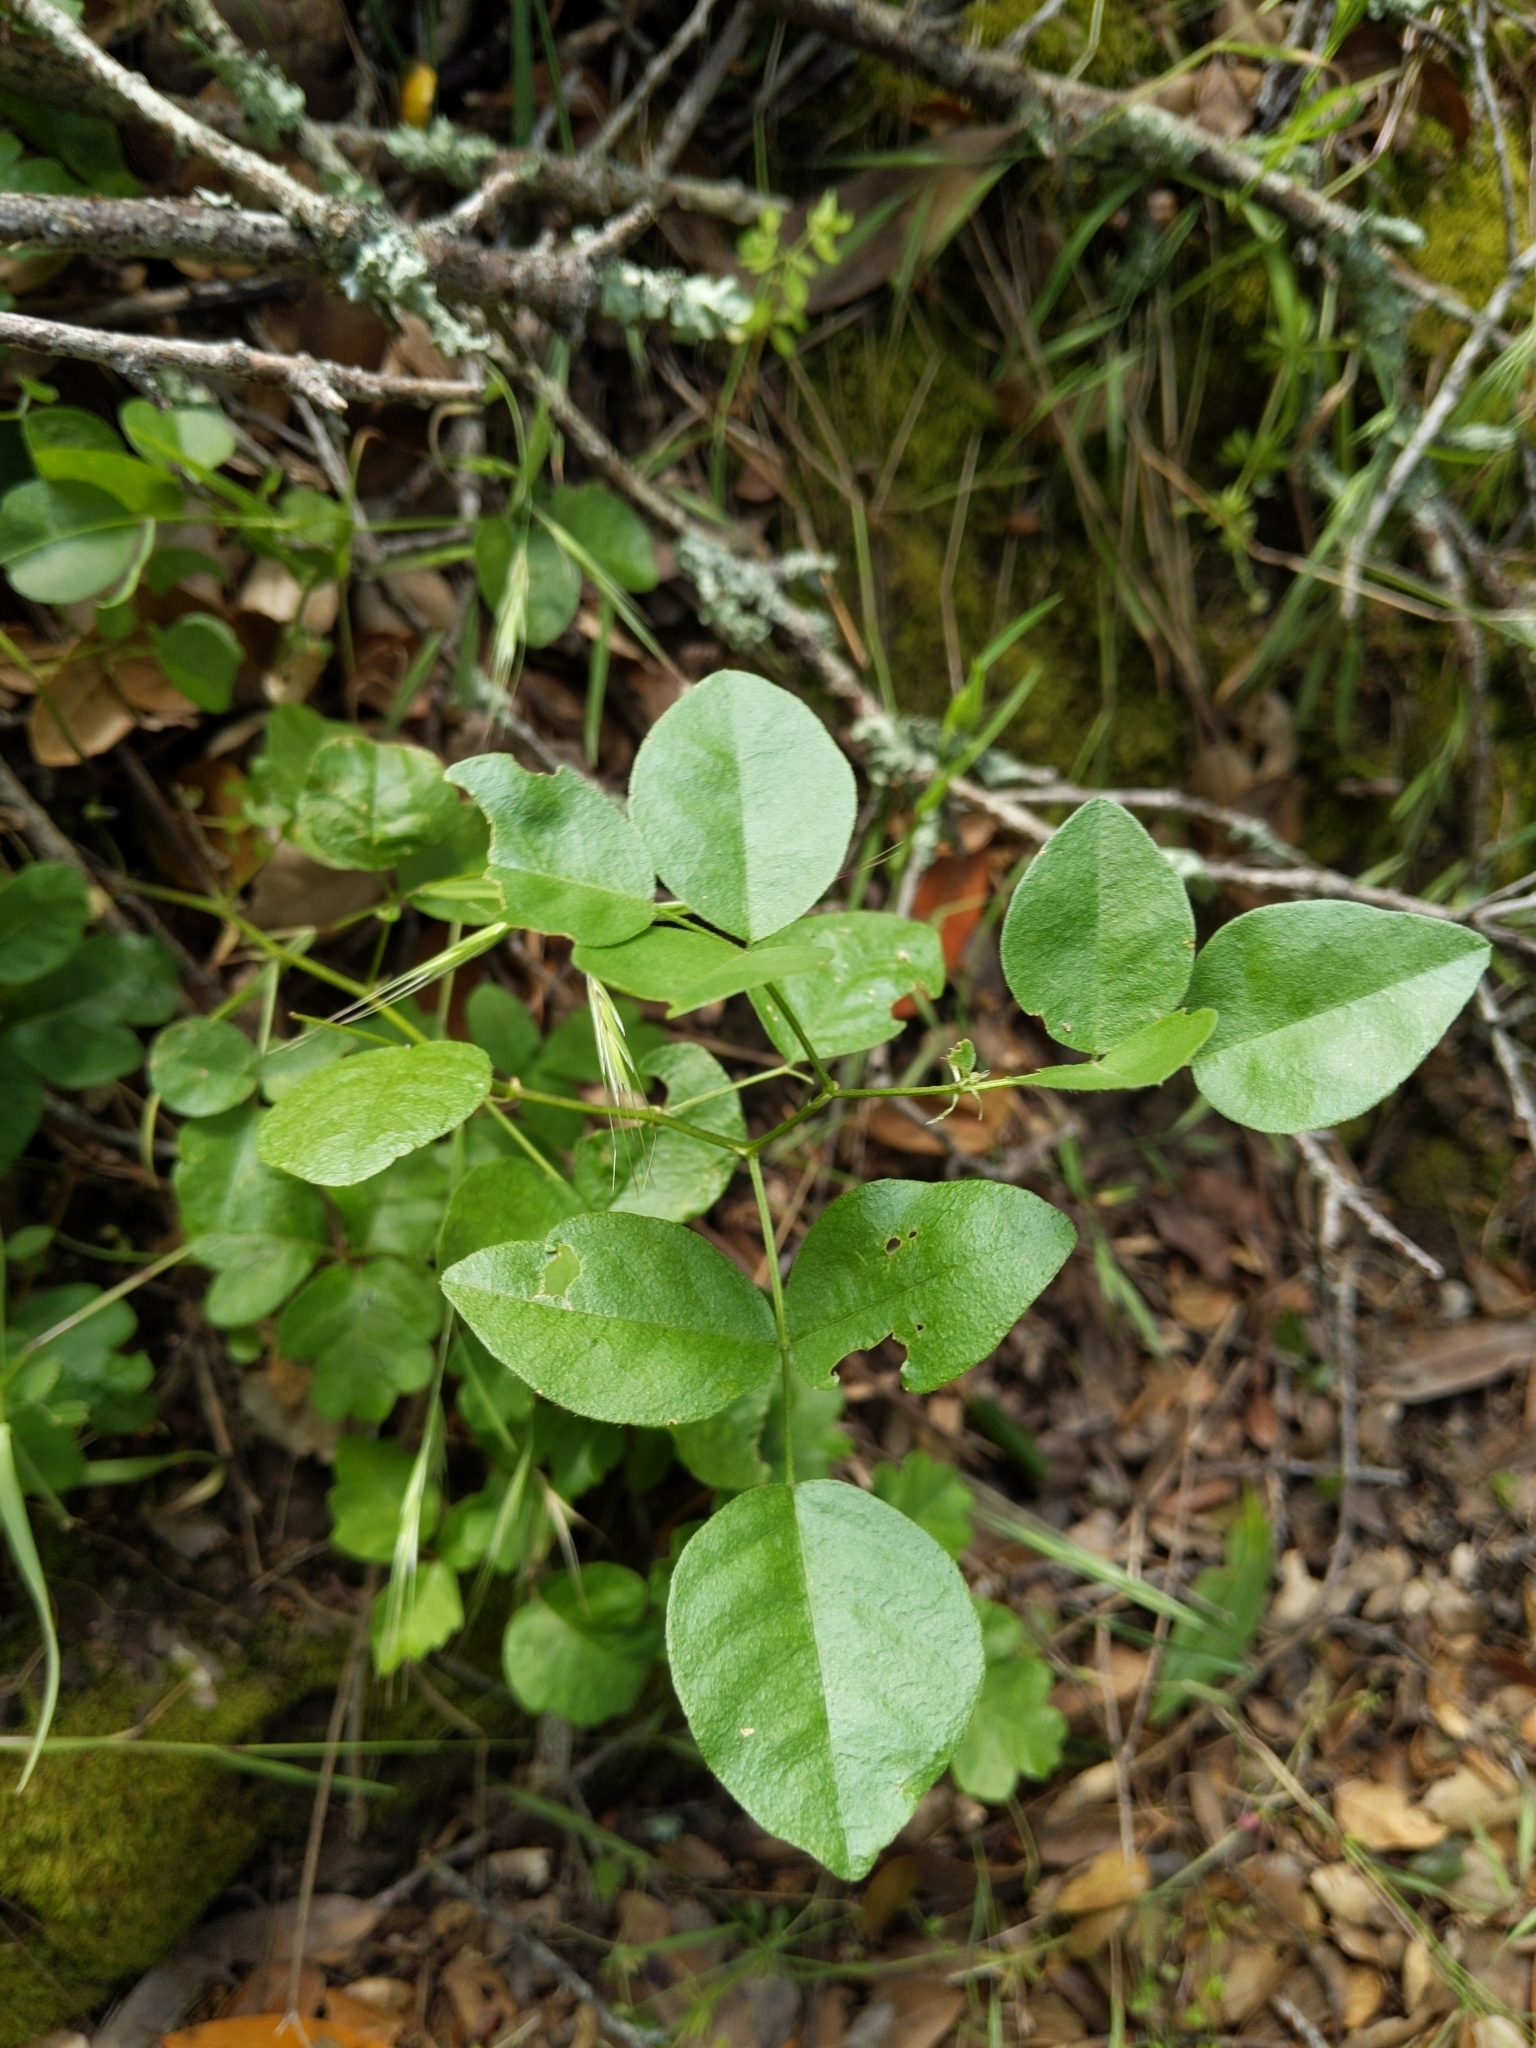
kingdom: Plantae
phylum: Tracheophyta
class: Magnoliopsida
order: Fabales
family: Fabaceae
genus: Rupertia
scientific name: Rupertia physodes
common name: California-tea
